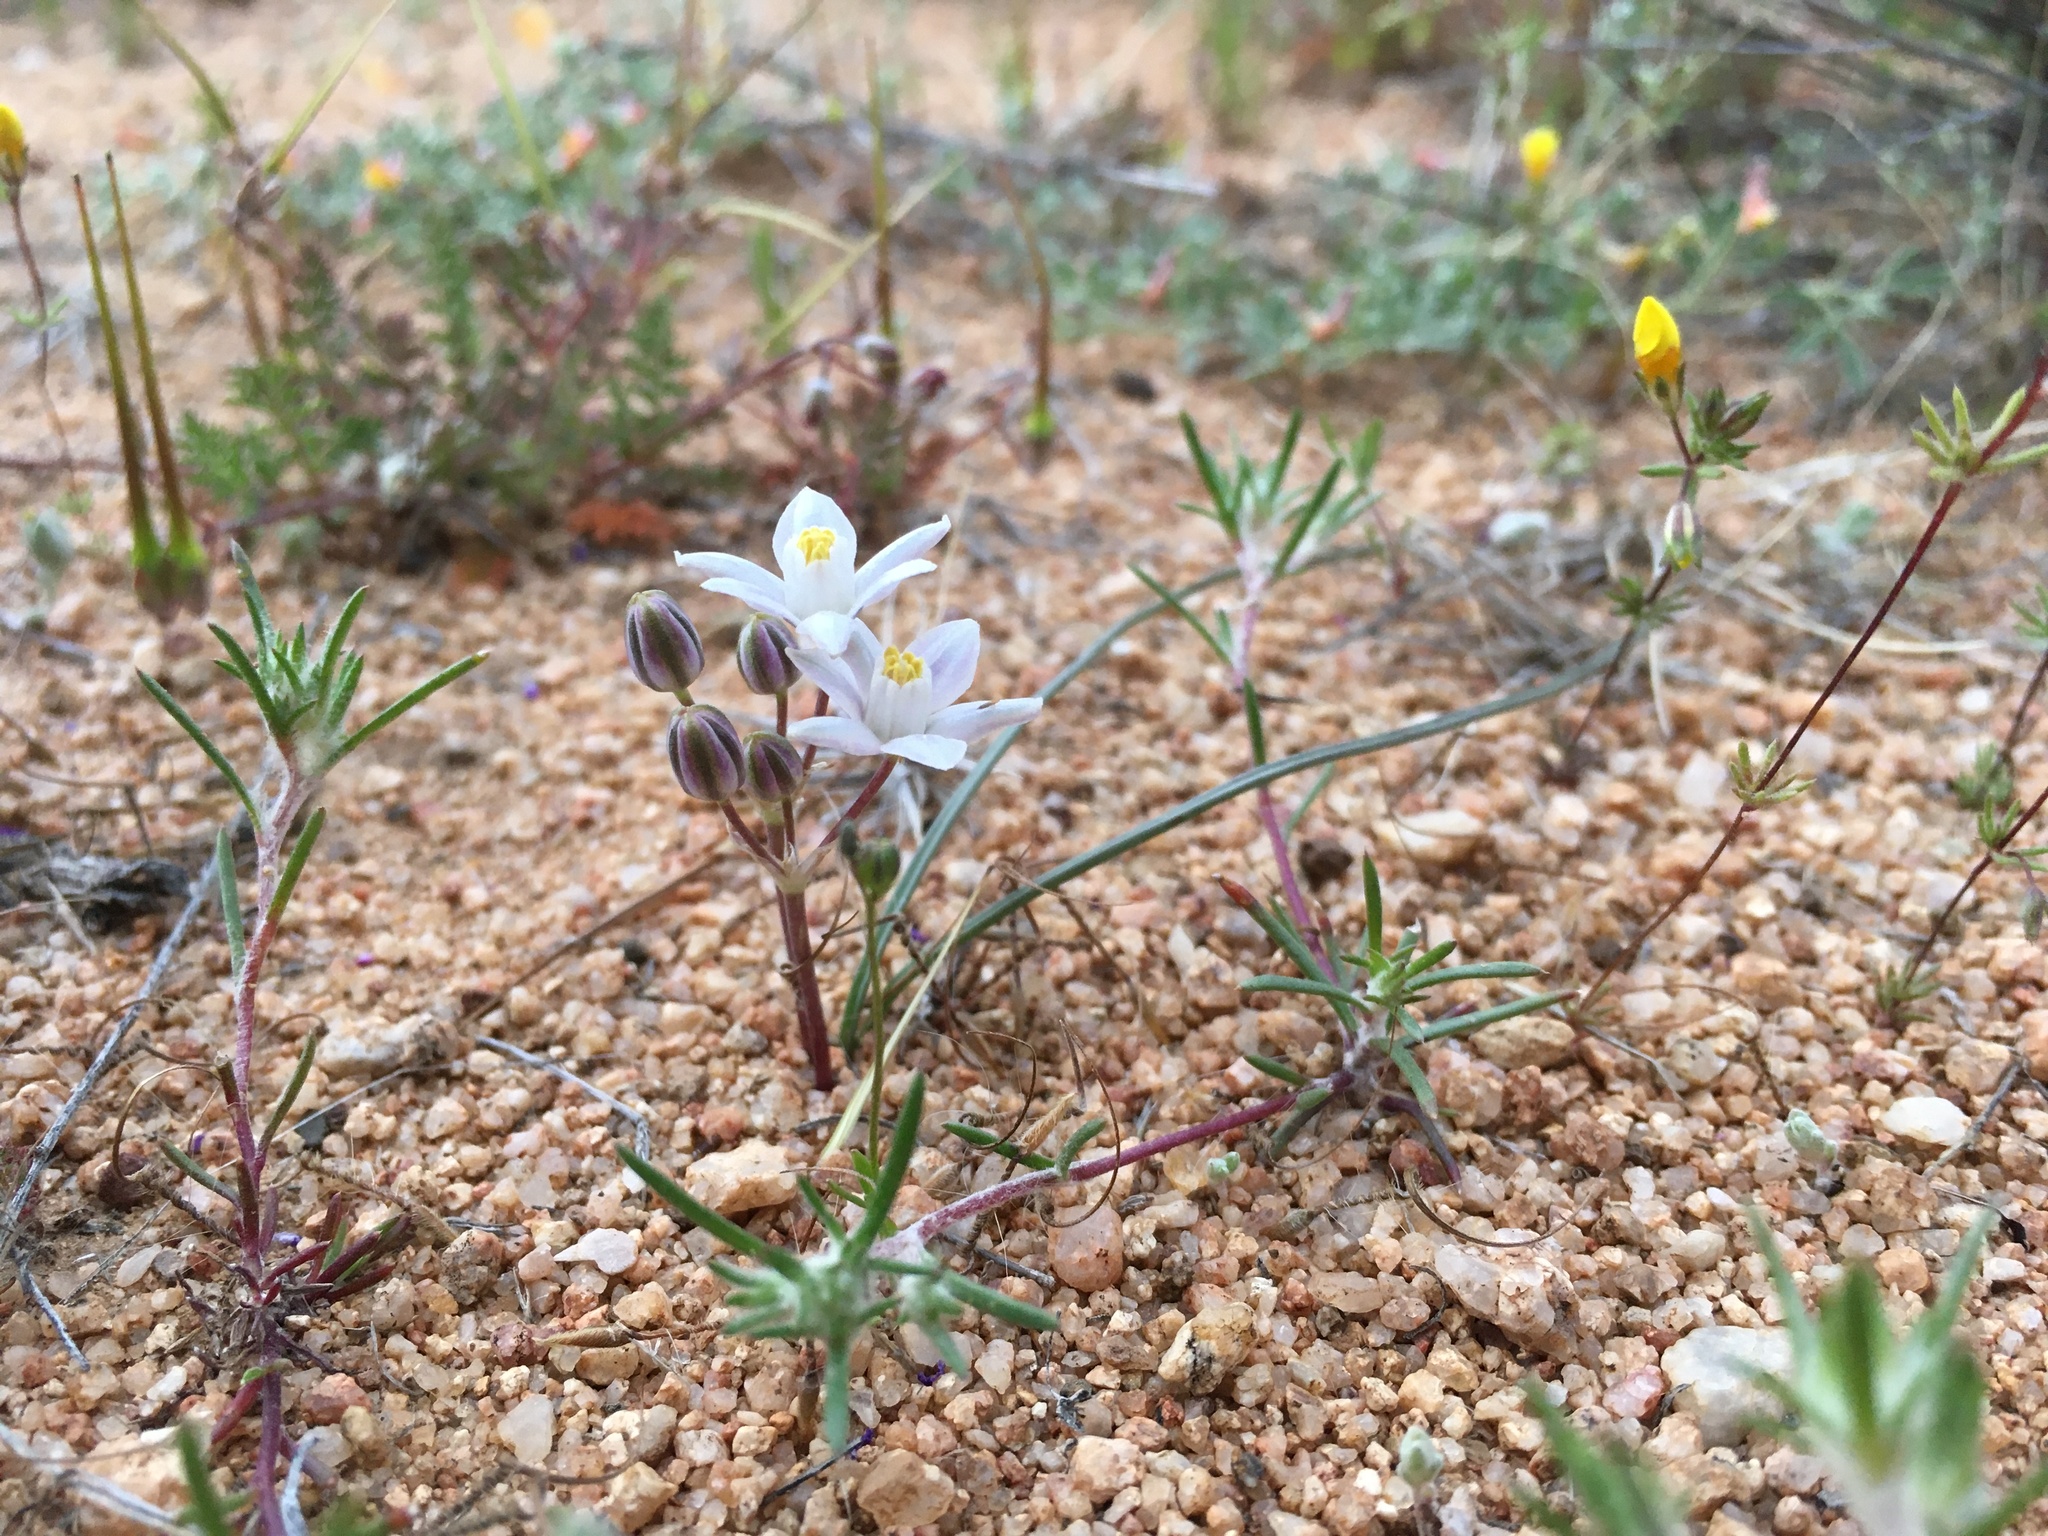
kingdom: Plantae
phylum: Tracheophyta
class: Liliopsida
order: Asparagales
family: Asparagaceae
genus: Muilla
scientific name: Muilla lordsburgana
